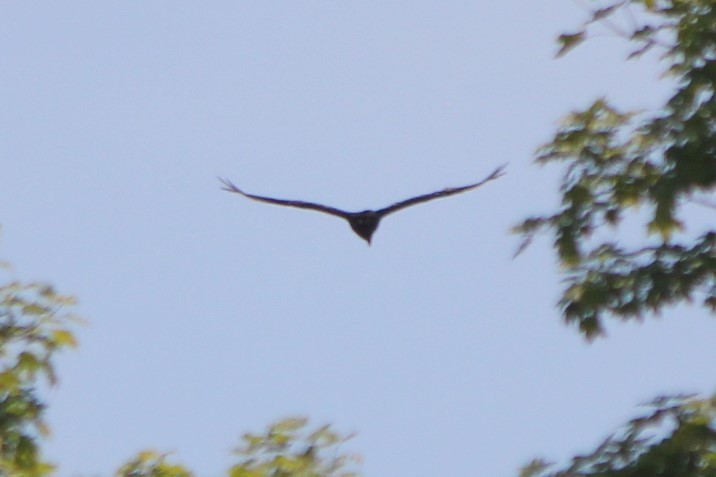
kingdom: Animalia
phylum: Chordata
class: Aves
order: Accipitriformes
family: Cathartidae
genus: Cathartes
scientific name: Cathartes aura
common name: Turkey vulture
